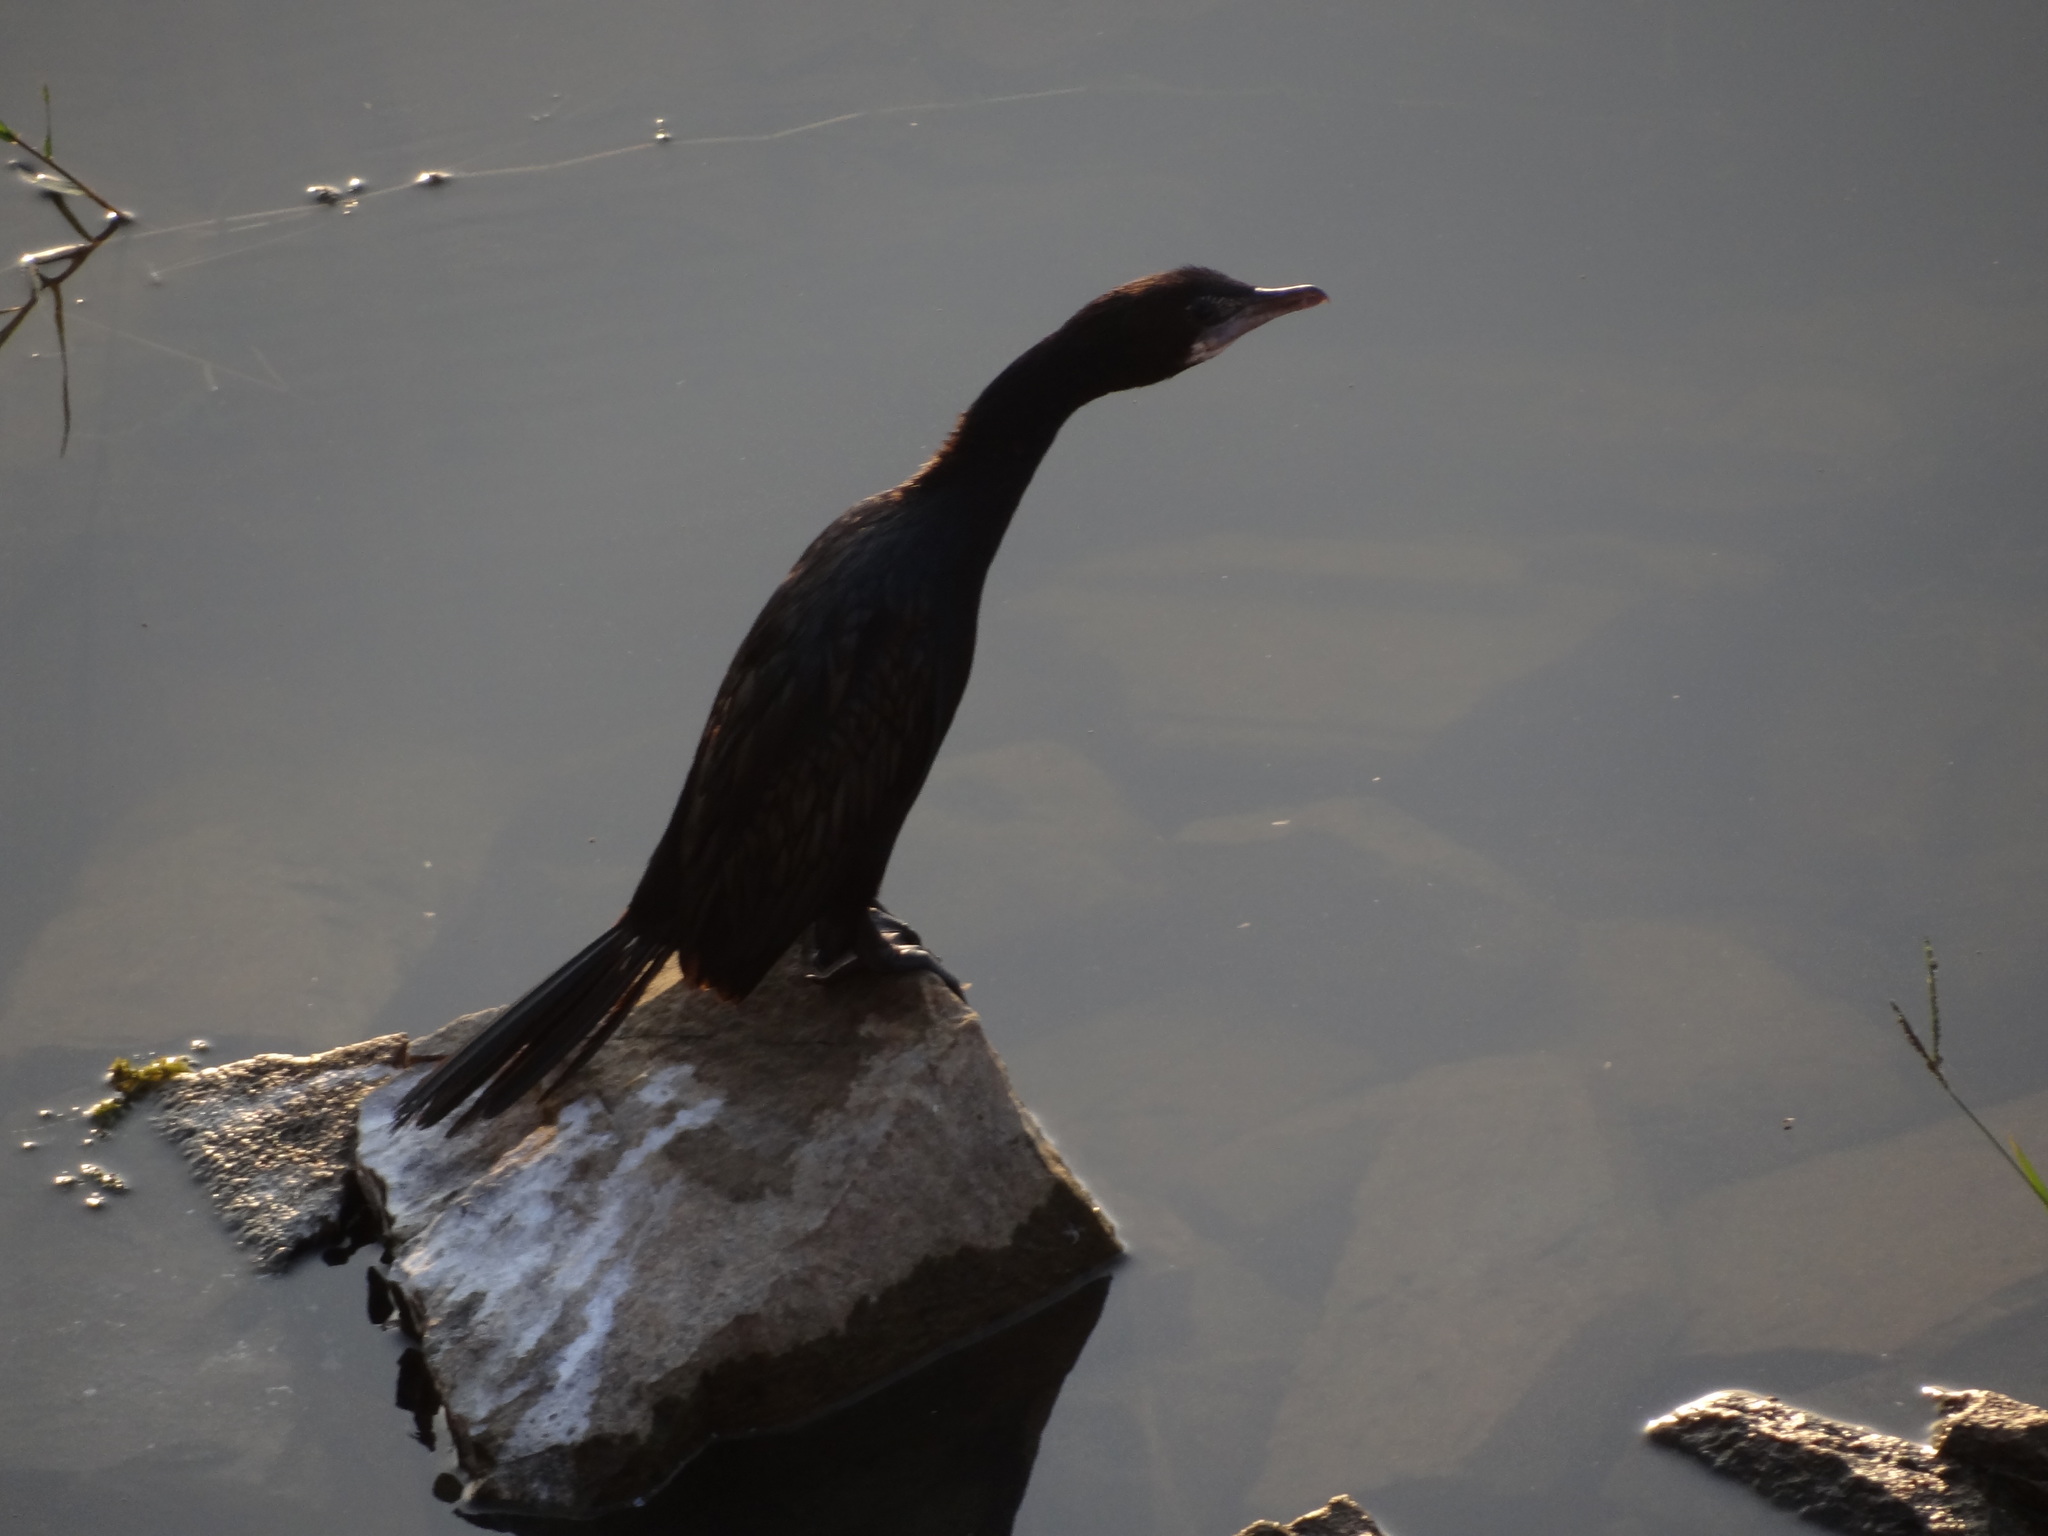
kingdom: Animalia
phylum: Chordata
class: Aves
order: Suliformes
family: Phalacrocoracidae
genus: Microcarbo
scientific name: Microcarbo niger
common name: Little cormorant
